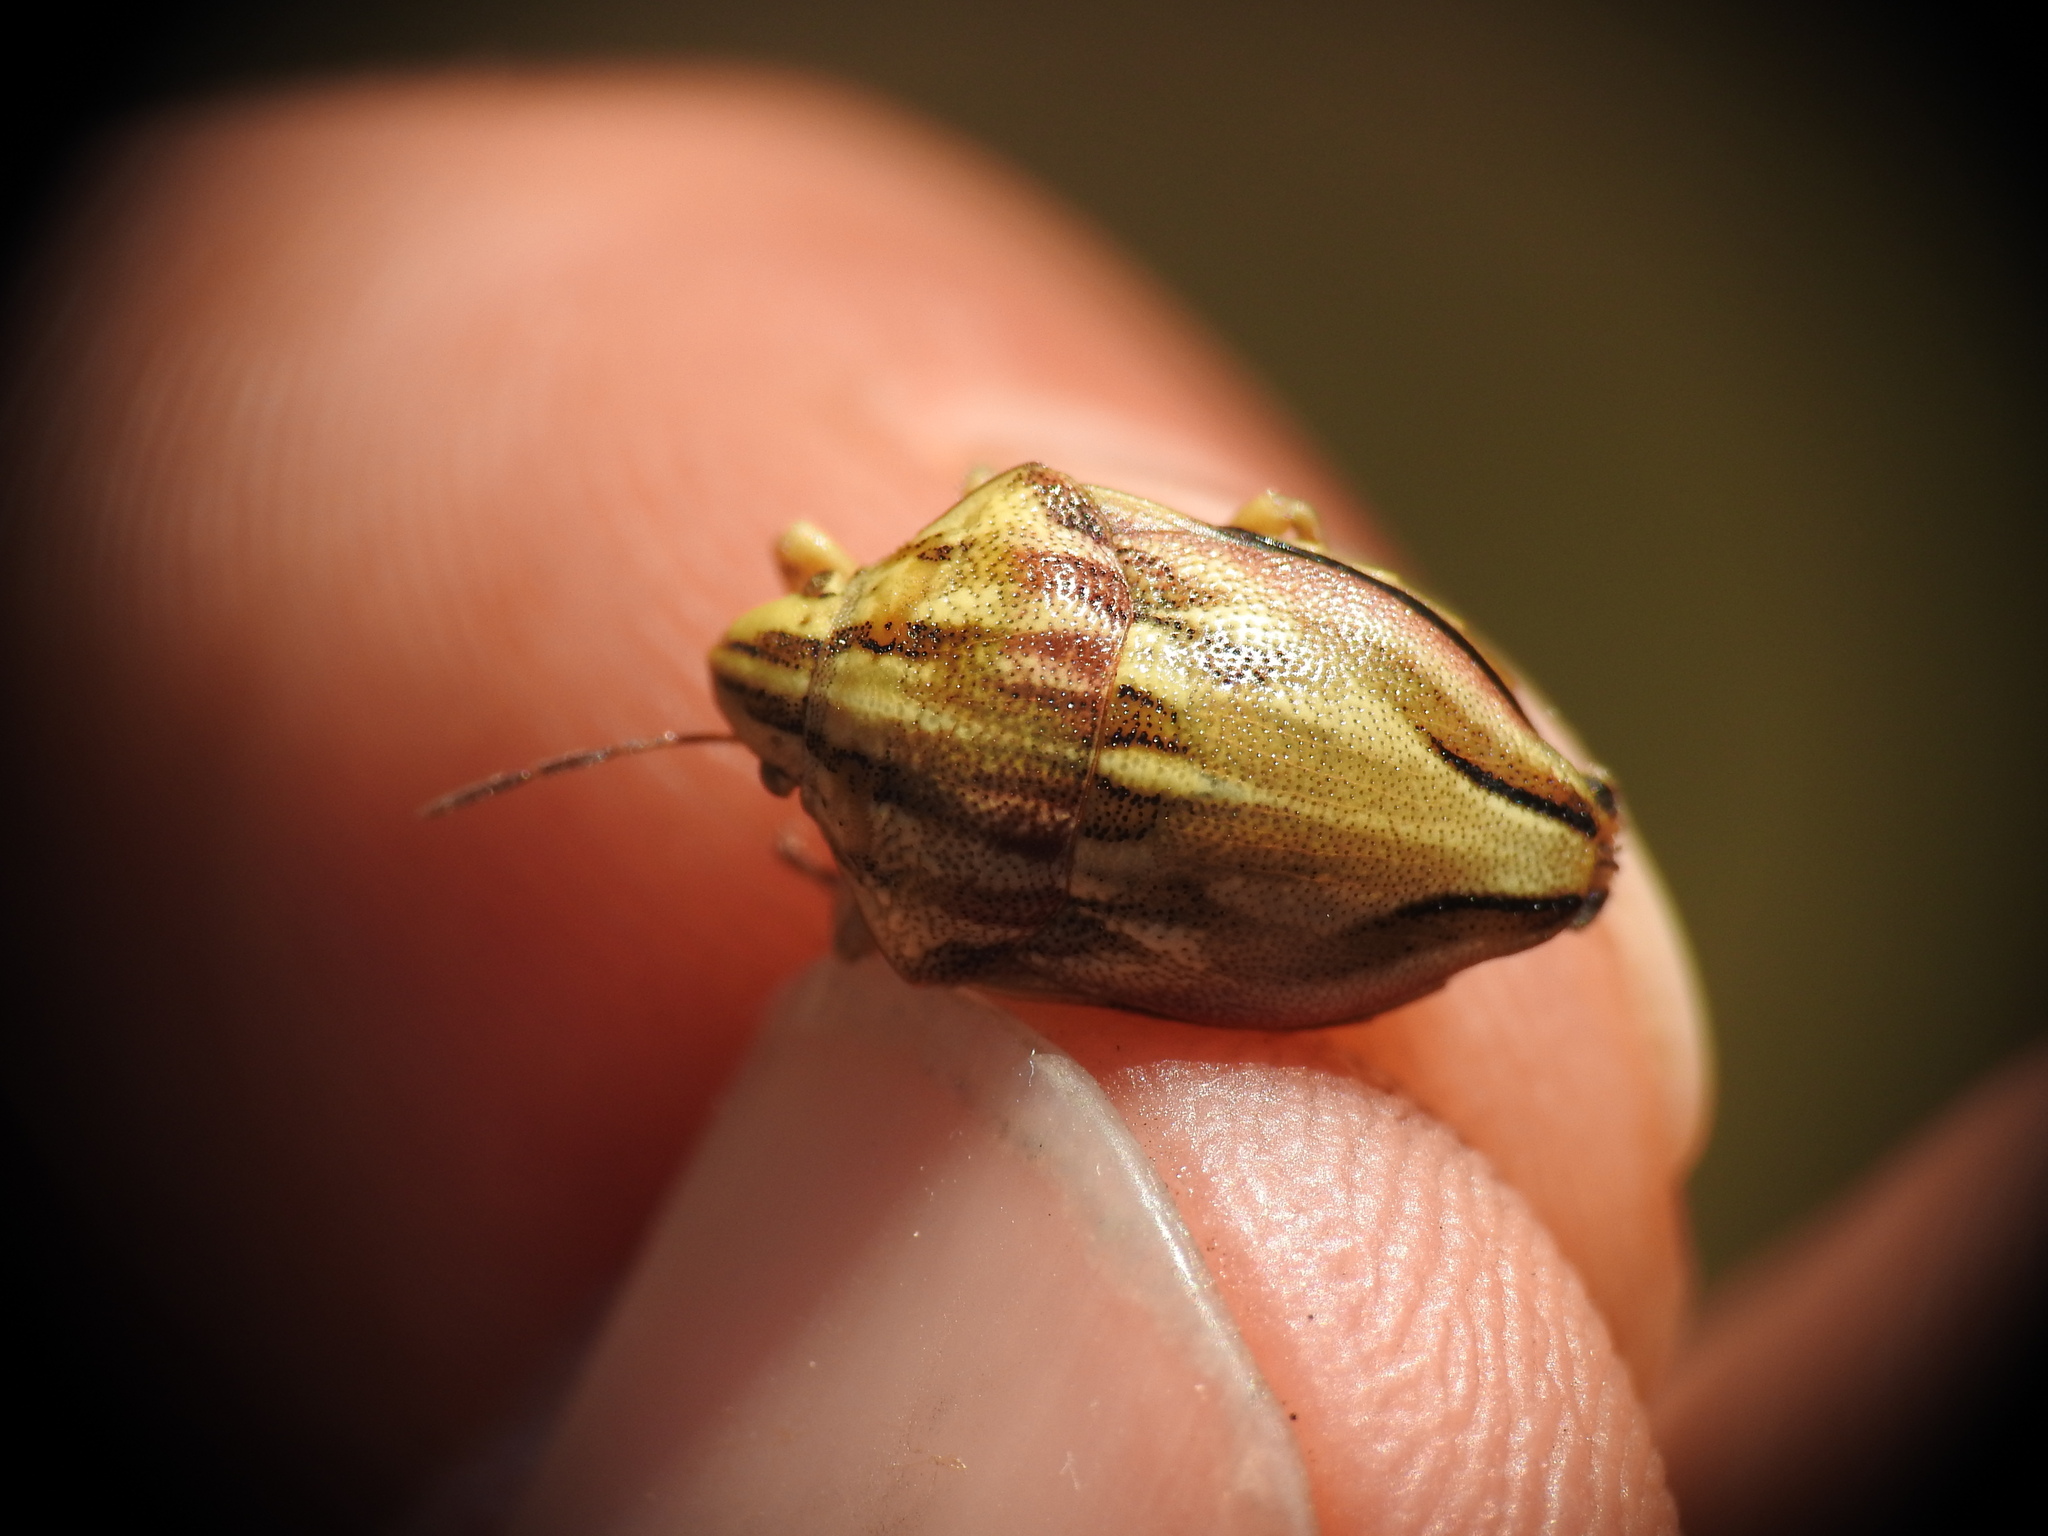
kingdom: Animalia
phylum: Arthropoda
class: Insecta
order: Hemiptera
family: Scutelleridae
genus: Odontotarsus
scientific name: Odontotarsus purpureolineatus
